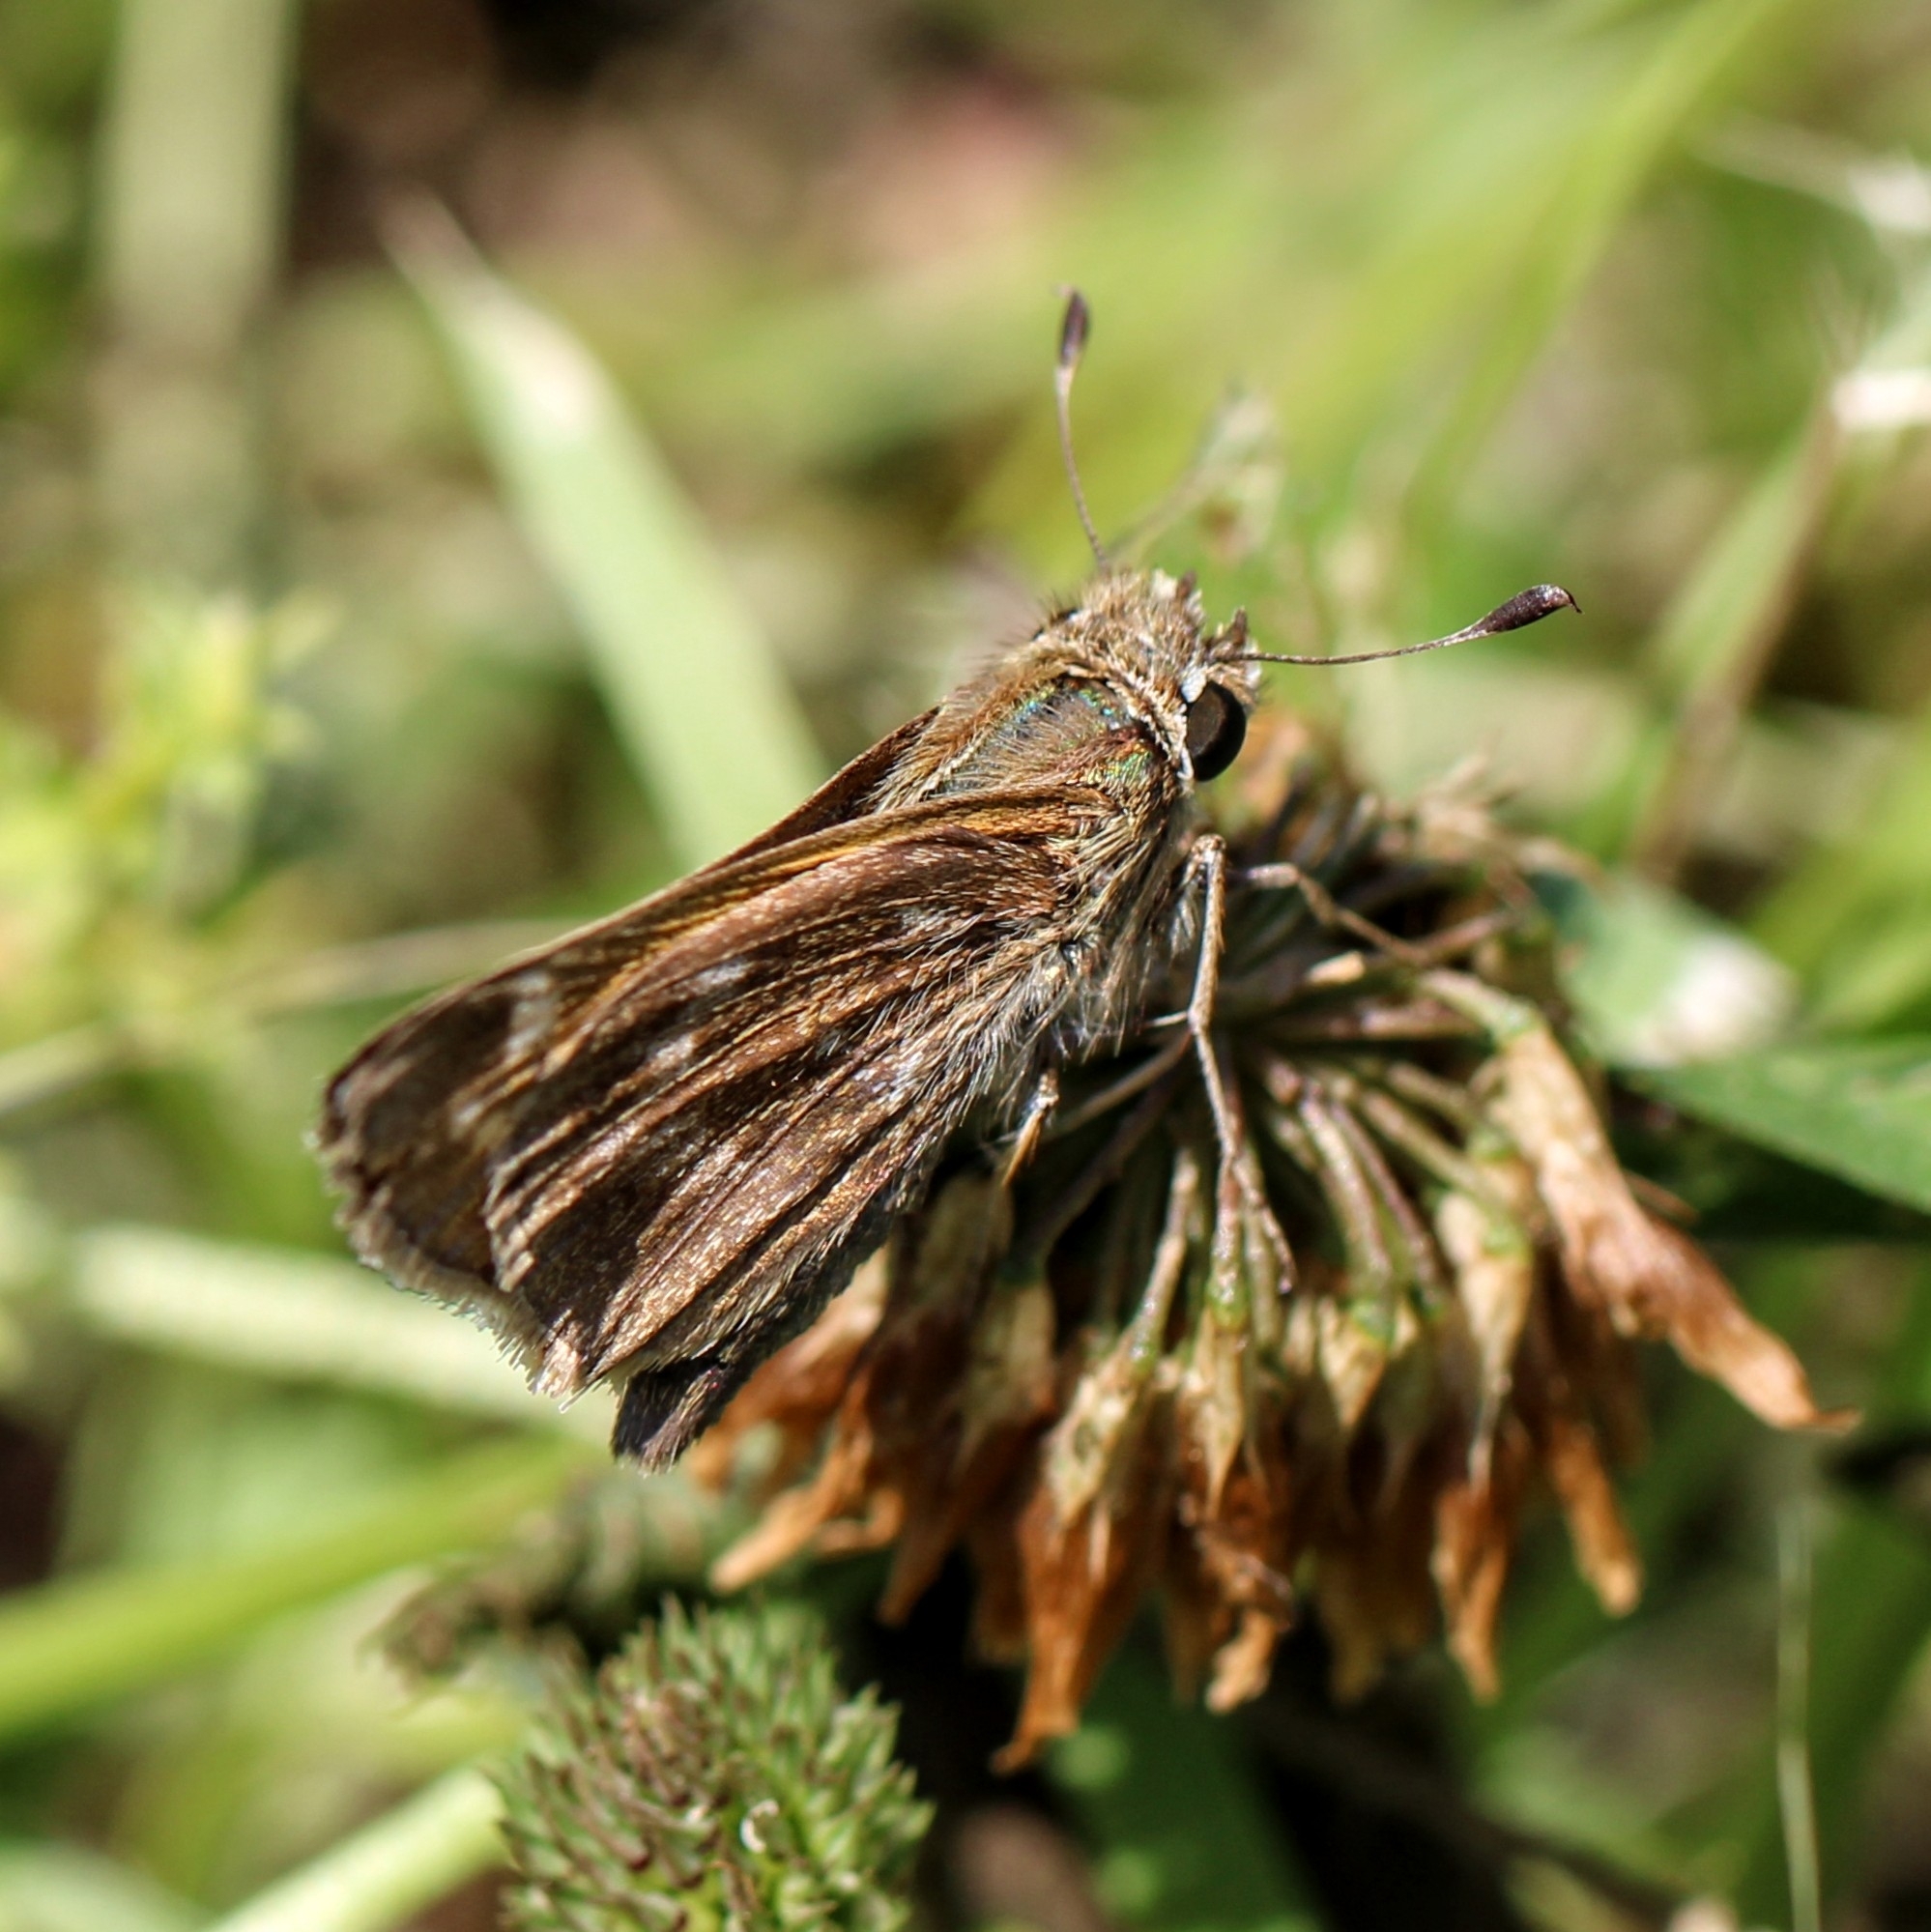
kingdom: Animalia
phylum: Arthropoda
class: Insecta
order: Lepidoptera
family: Hesperiidae
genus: Atalopedes
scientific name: Atalopedes
